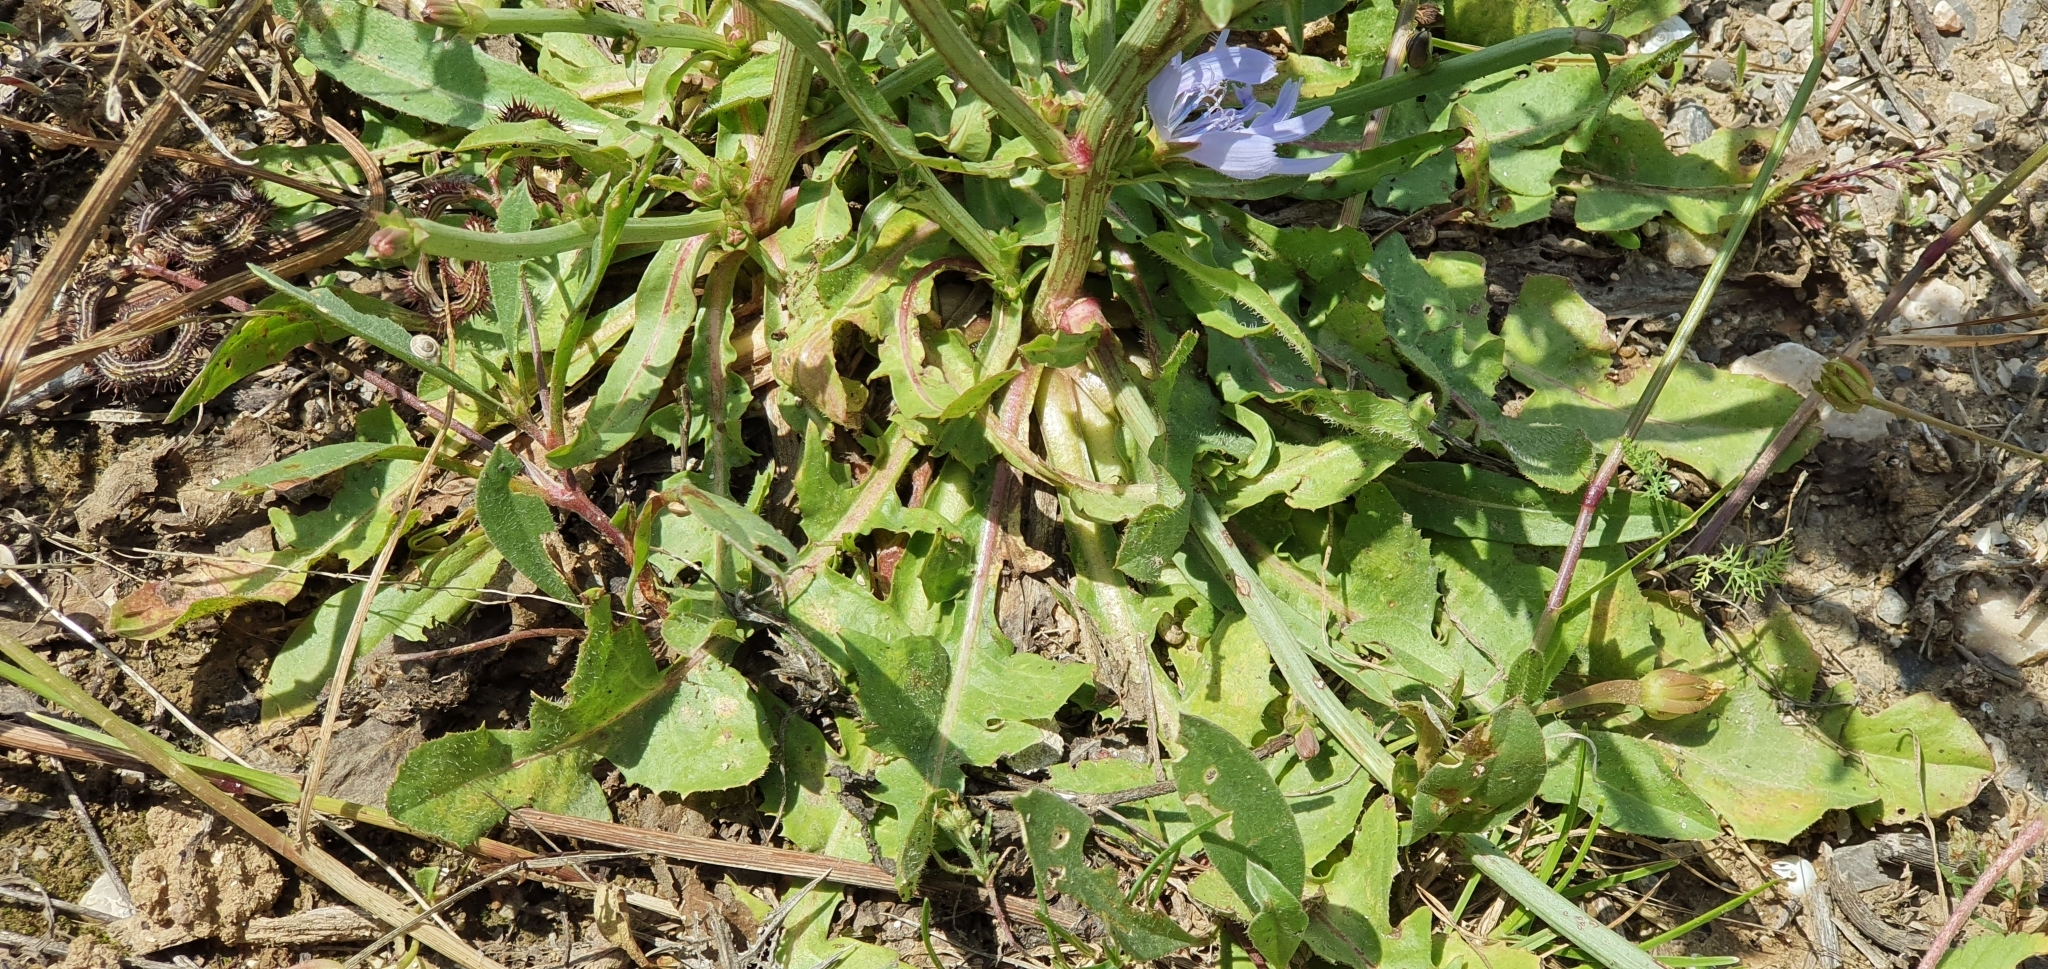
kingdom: Plantae
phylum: Tracheophyta
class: Magnoliopsida
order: Asterales
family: Asteraceae
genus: Cichorium
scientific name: Cichorium intybus
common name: Chicory
